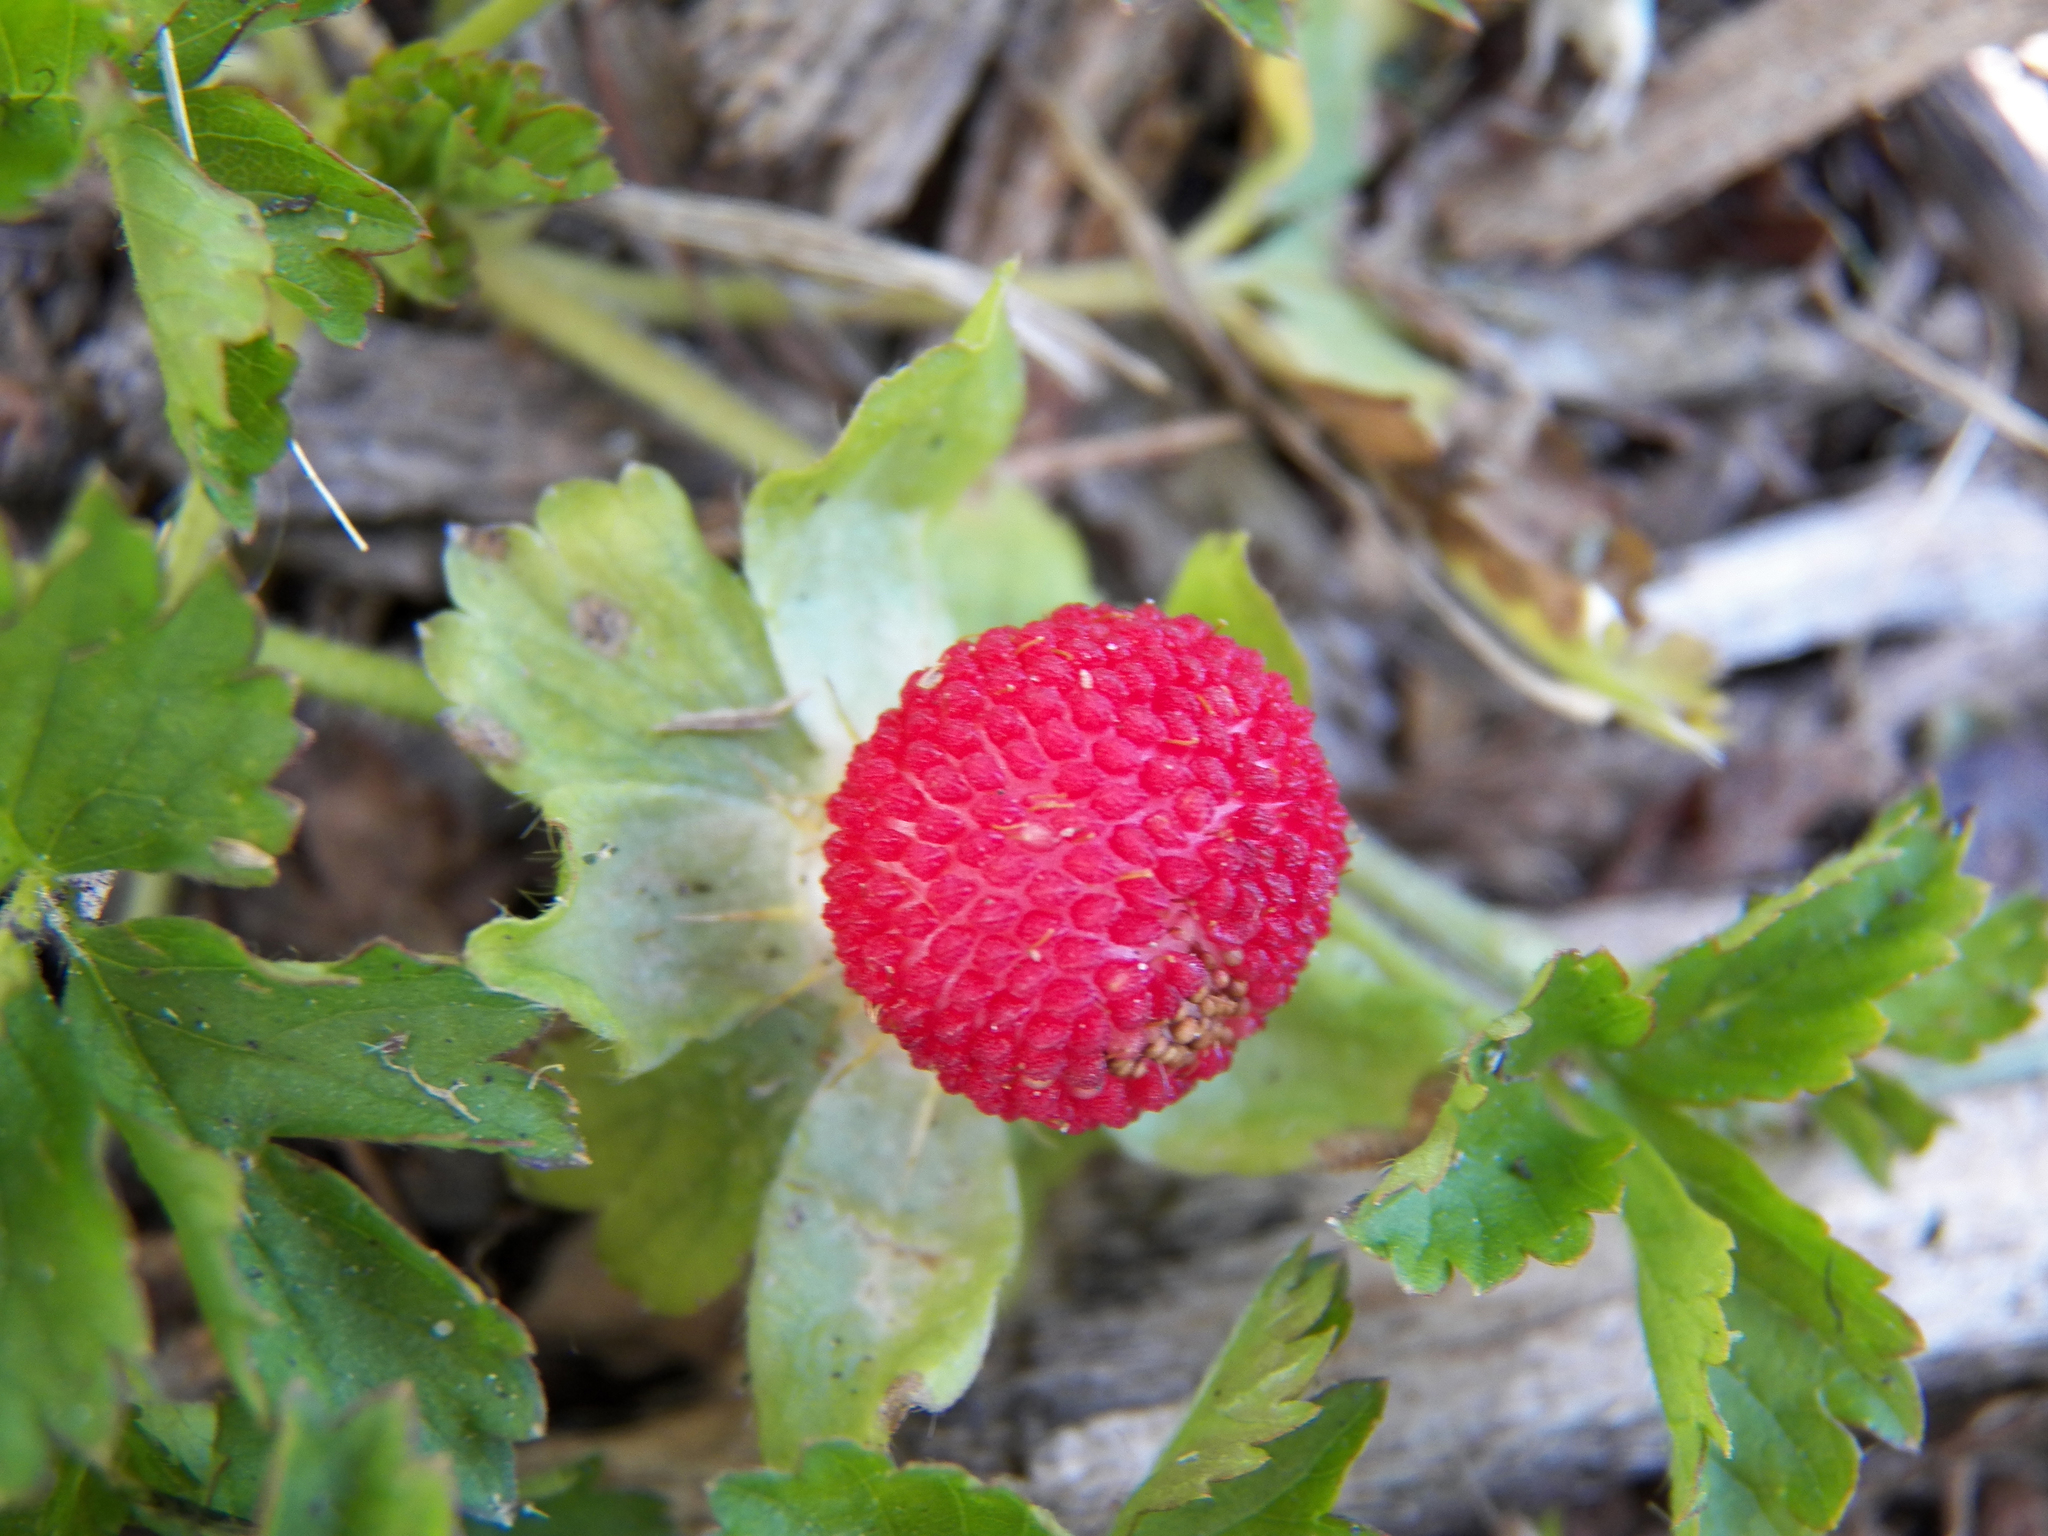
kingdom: Plantae
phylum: Tracheophyta
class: Magnoliopsida
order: Rosales
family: Rosaceae
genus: Potentilla
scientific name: Potentilla indica
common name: Yellow-flowered strawberry
